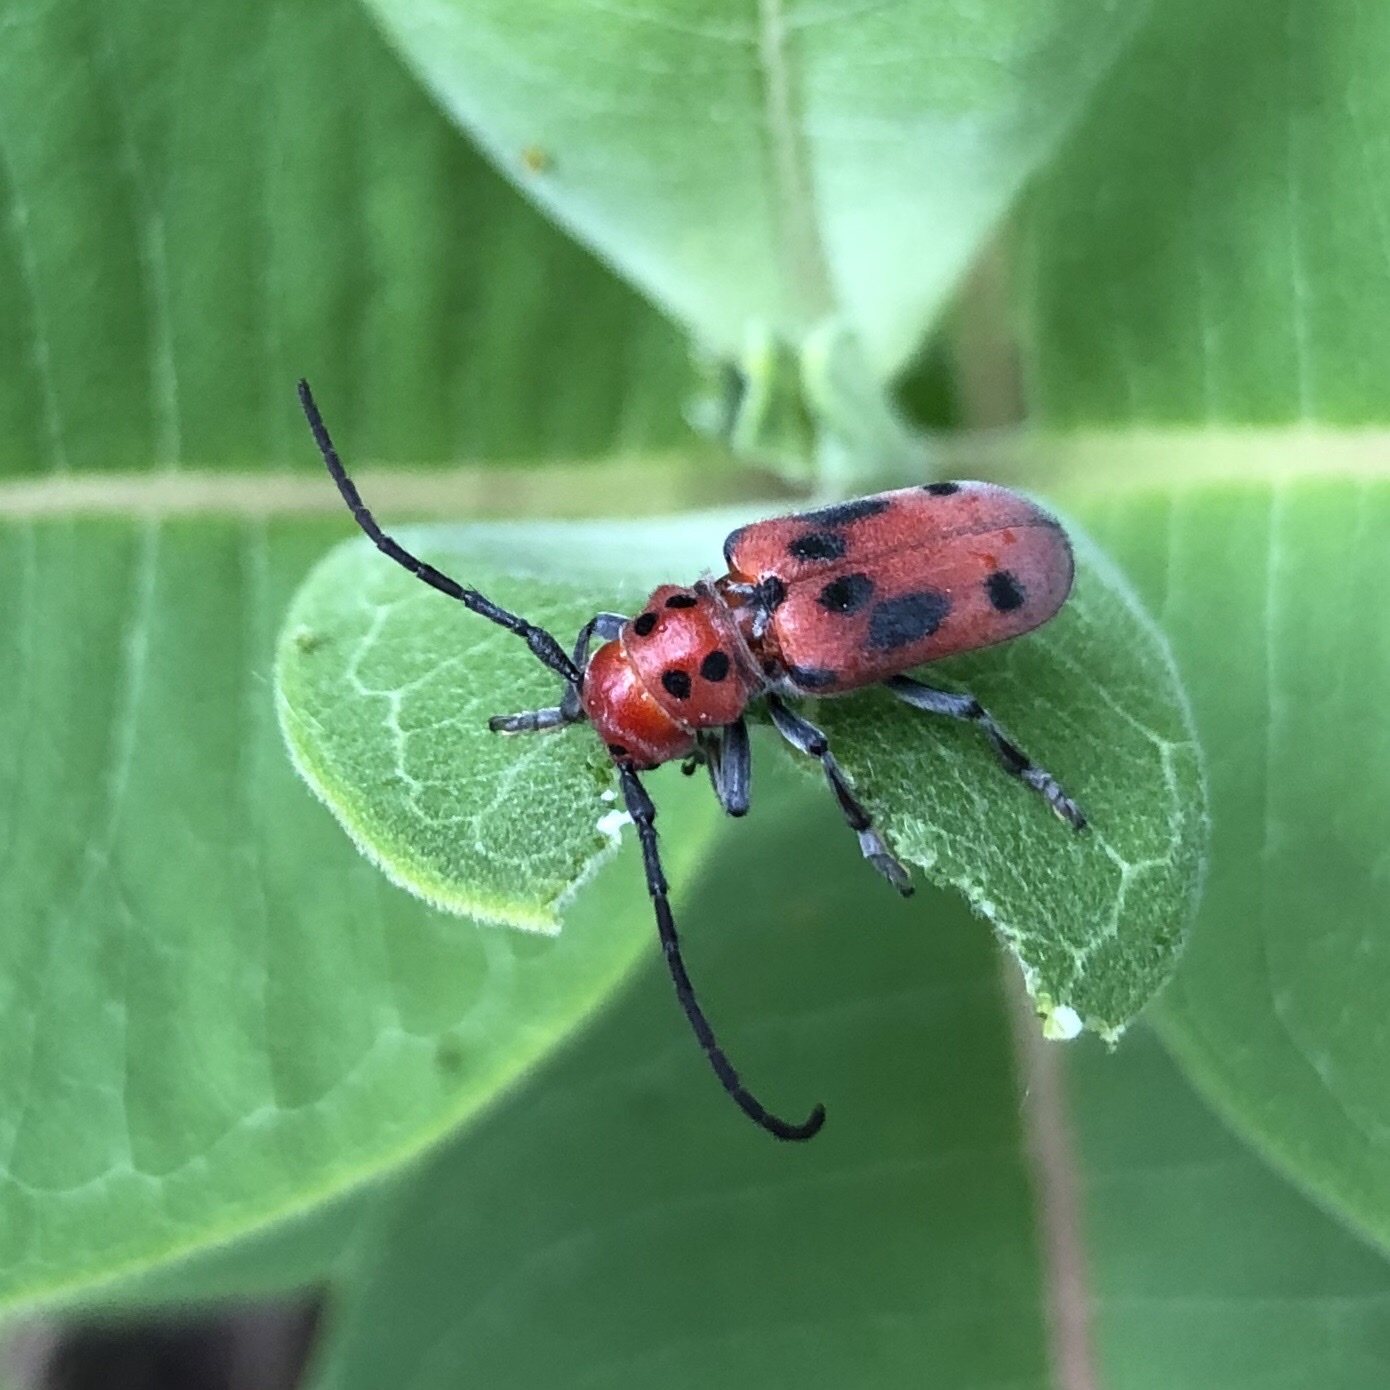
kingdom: Animalia
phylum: Arthropoda
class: Insecta
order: Coleoptera
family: Cerambycidae
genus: Tetraopes
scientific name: Tetraopes tetrophthalmus
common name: Red milkweed beetle
